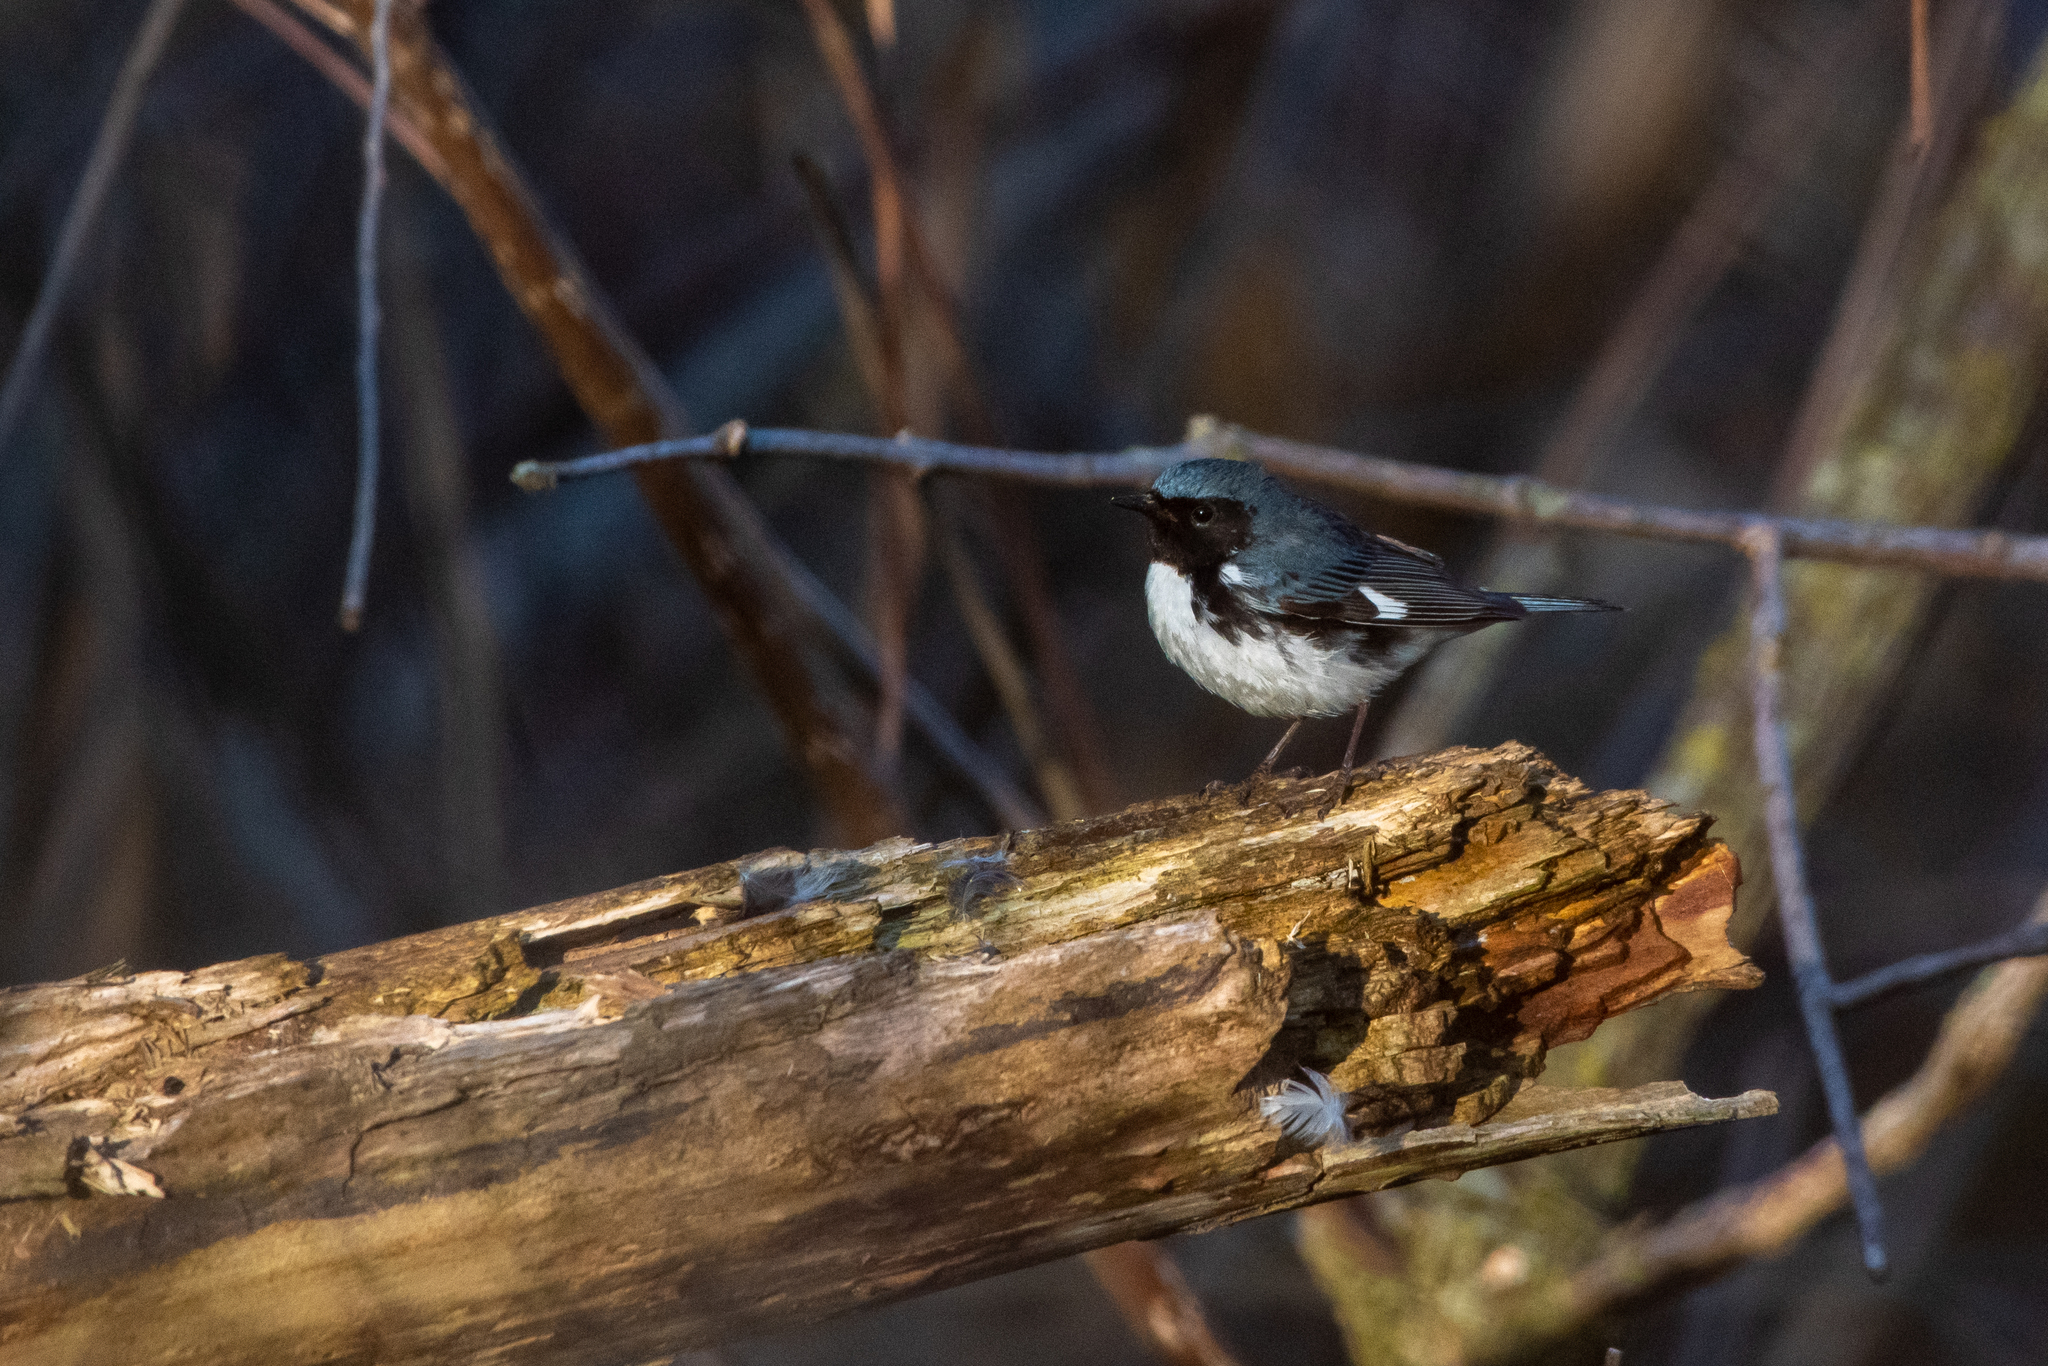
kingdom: Animalia
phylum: Chordata
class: Aves
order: Passeriformes
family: Parulidae
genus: Setophaga
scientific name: Setophaga caerulescens
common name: Black-throated blue warbler
